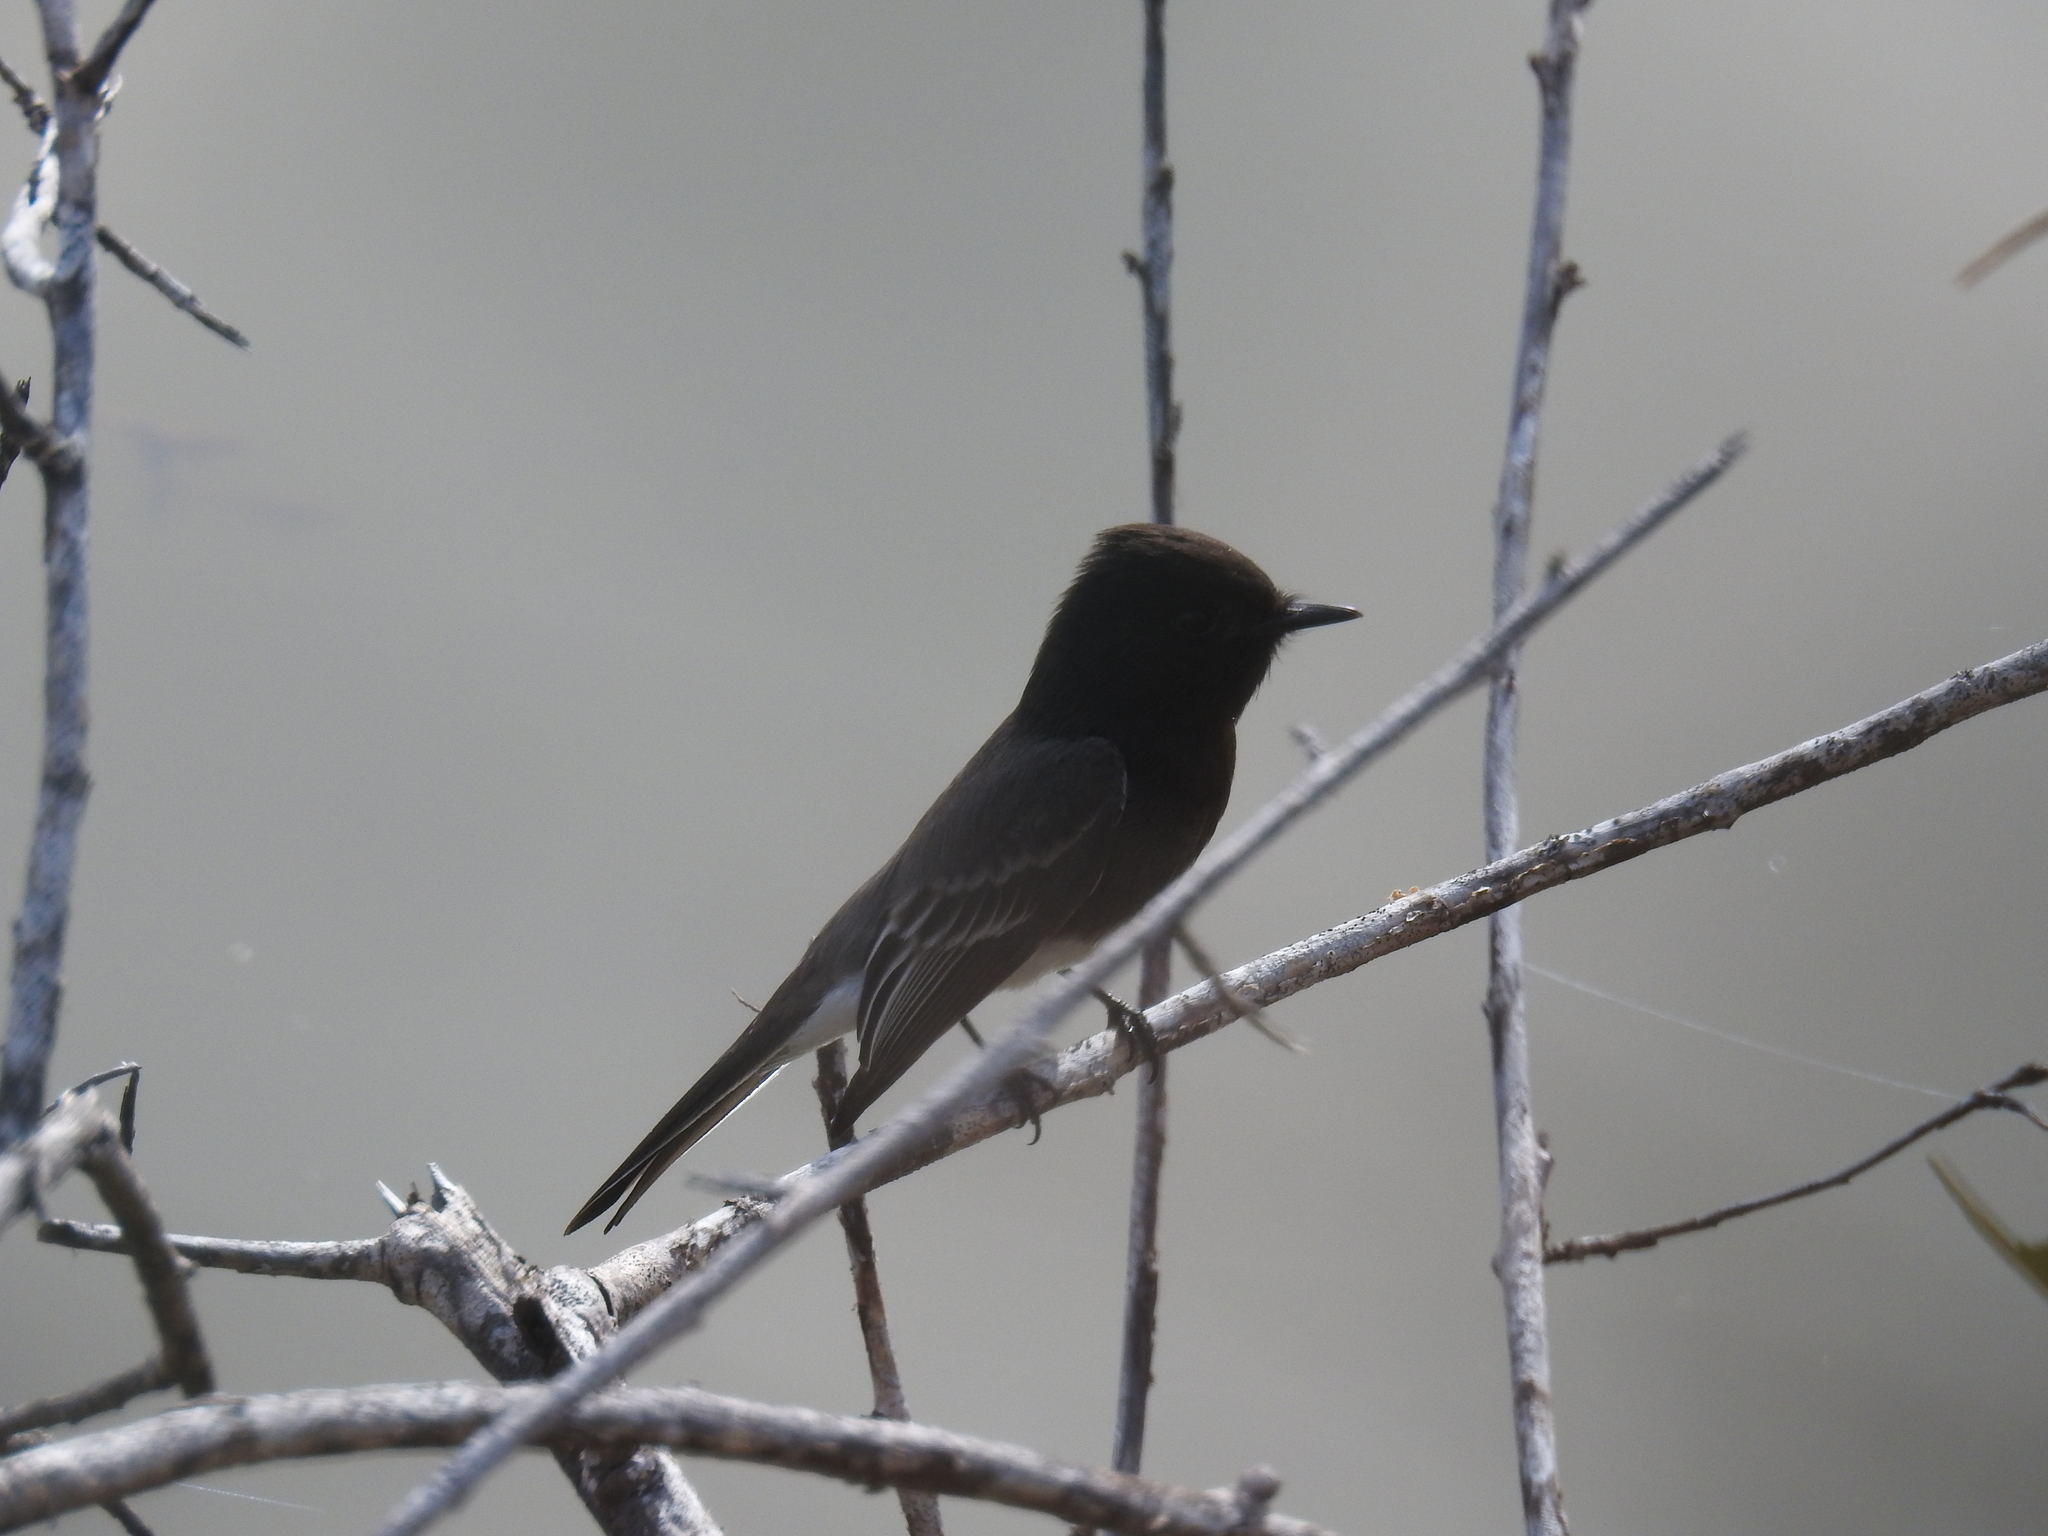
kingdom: Animalia
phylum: Chordata
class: Aves
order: Passeriformes
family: Tyrannidae
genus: Sayornis
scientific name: Sayornis nigricans
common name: Black phoebe
